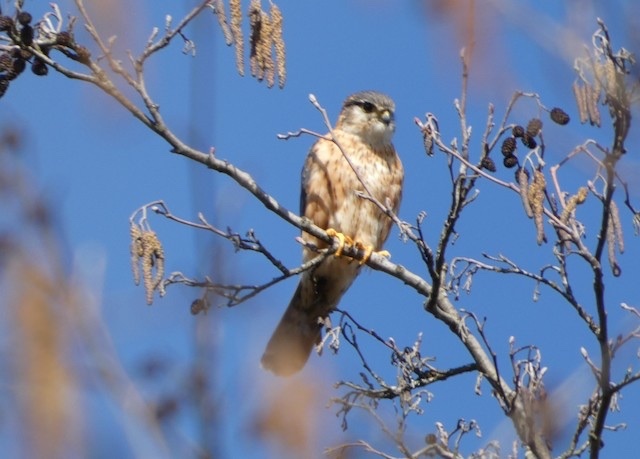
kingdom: Animalia
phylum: Chordata
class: Aves
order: Falconiformes
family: Falconidae
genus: Falco
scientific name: Falco columbarius
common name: Merlin
